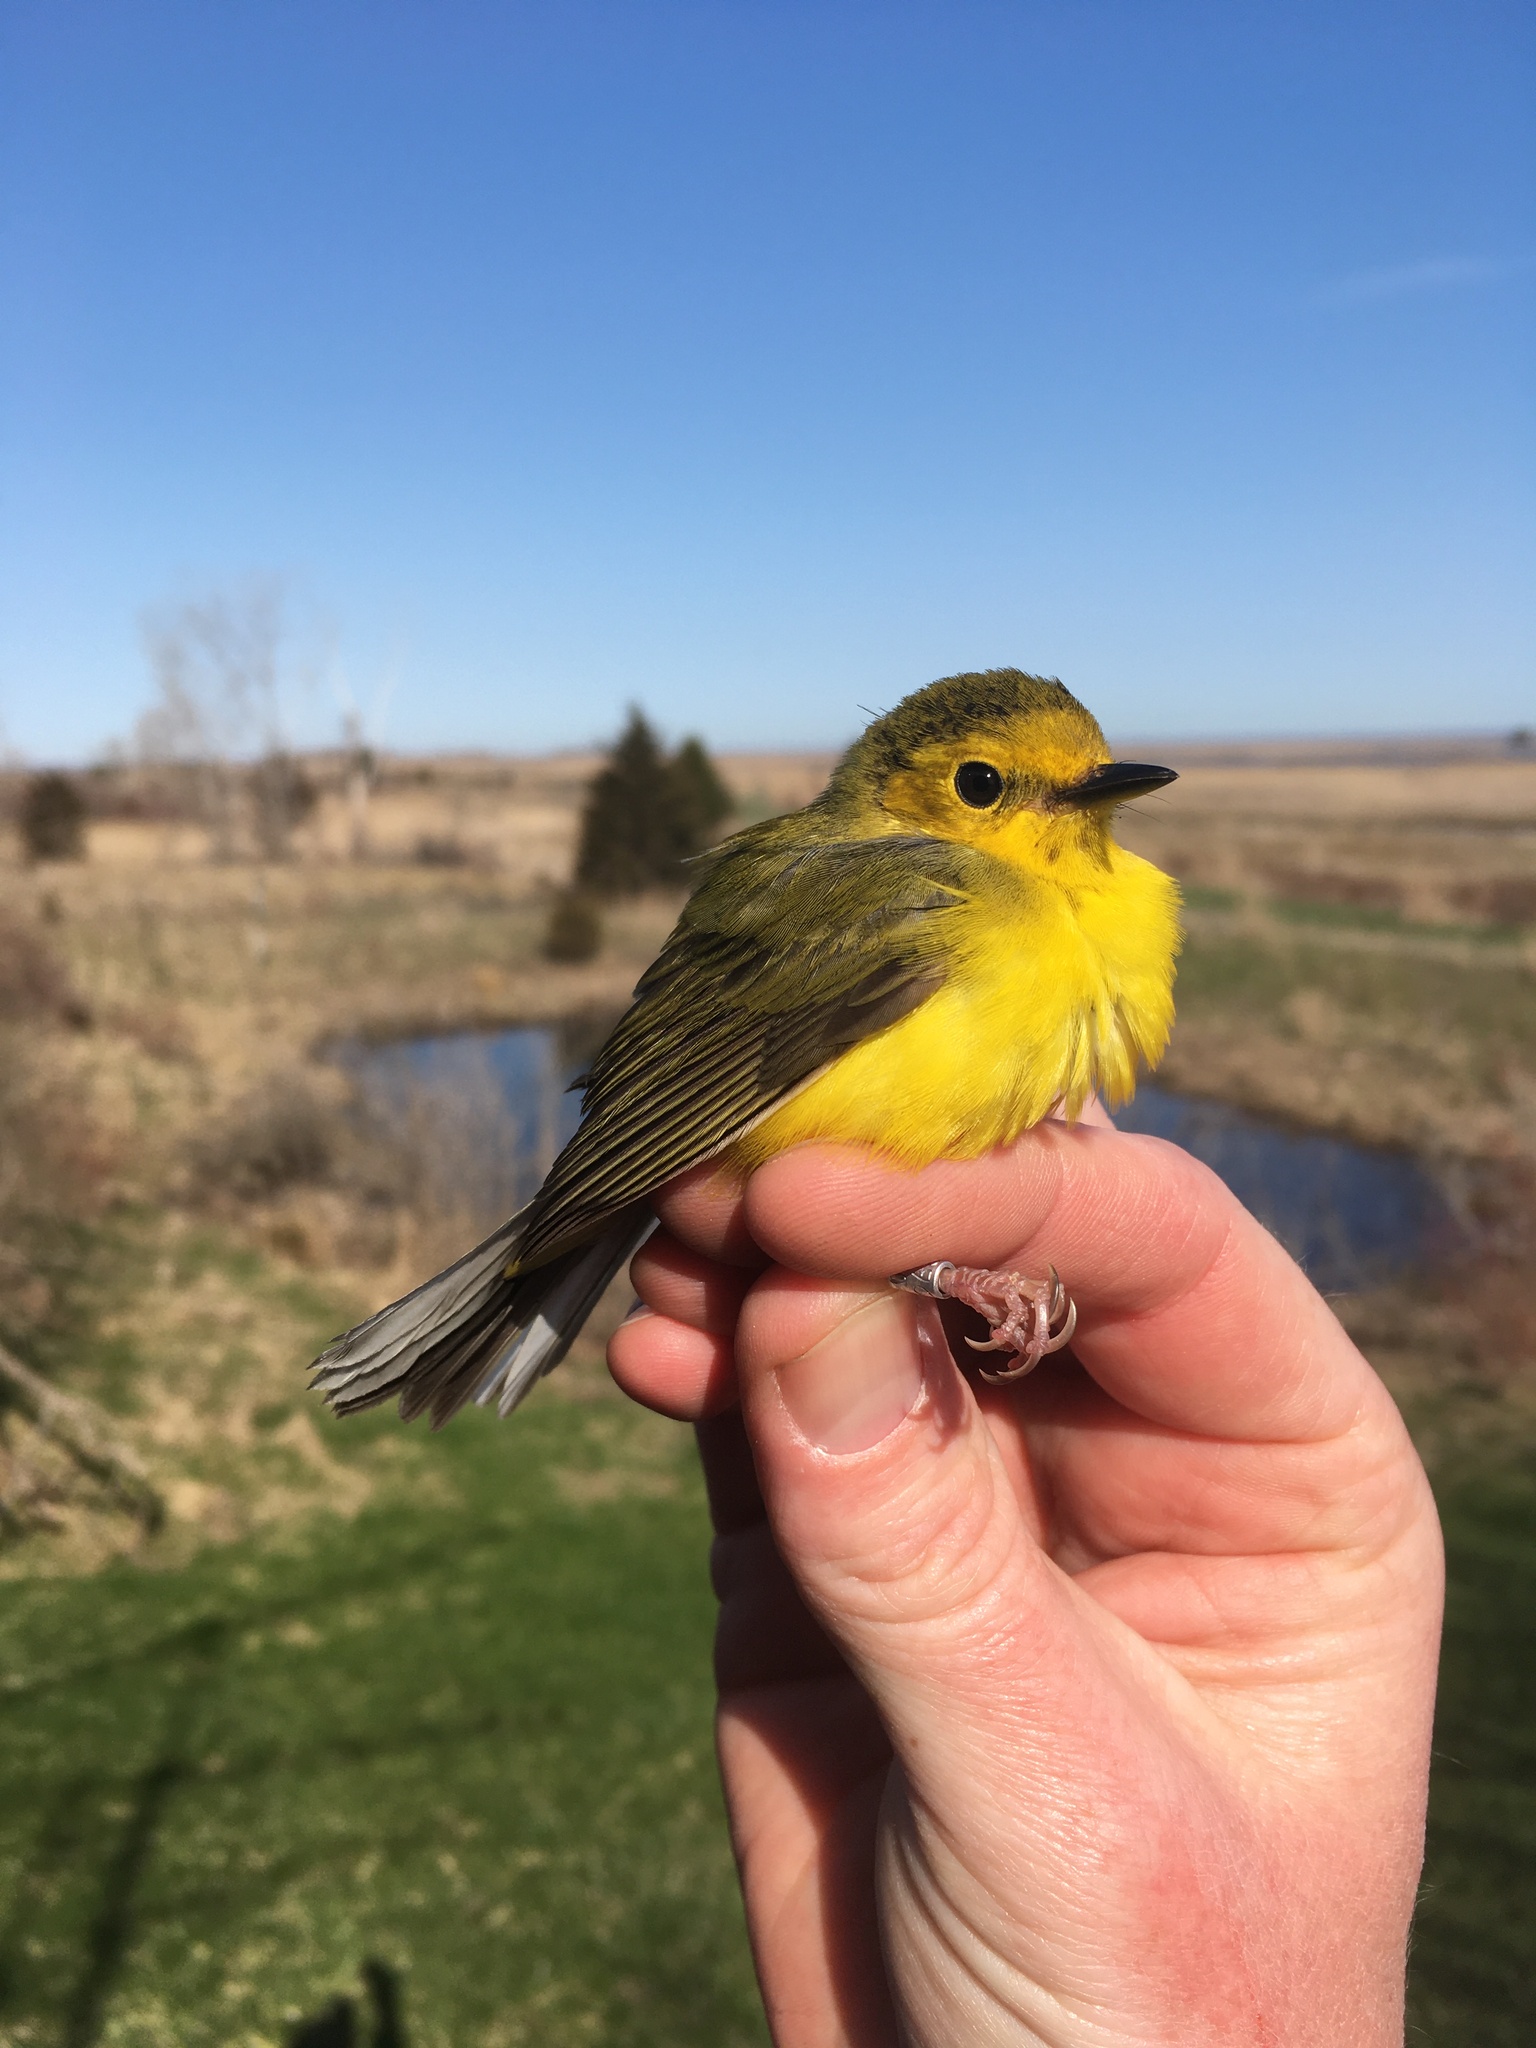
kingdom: Animalia
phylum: Chordata
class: Aves
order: Passeriformes
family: Parulidae
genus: Setophaga
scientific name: Setophaga citrina
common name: Hooded warbler
